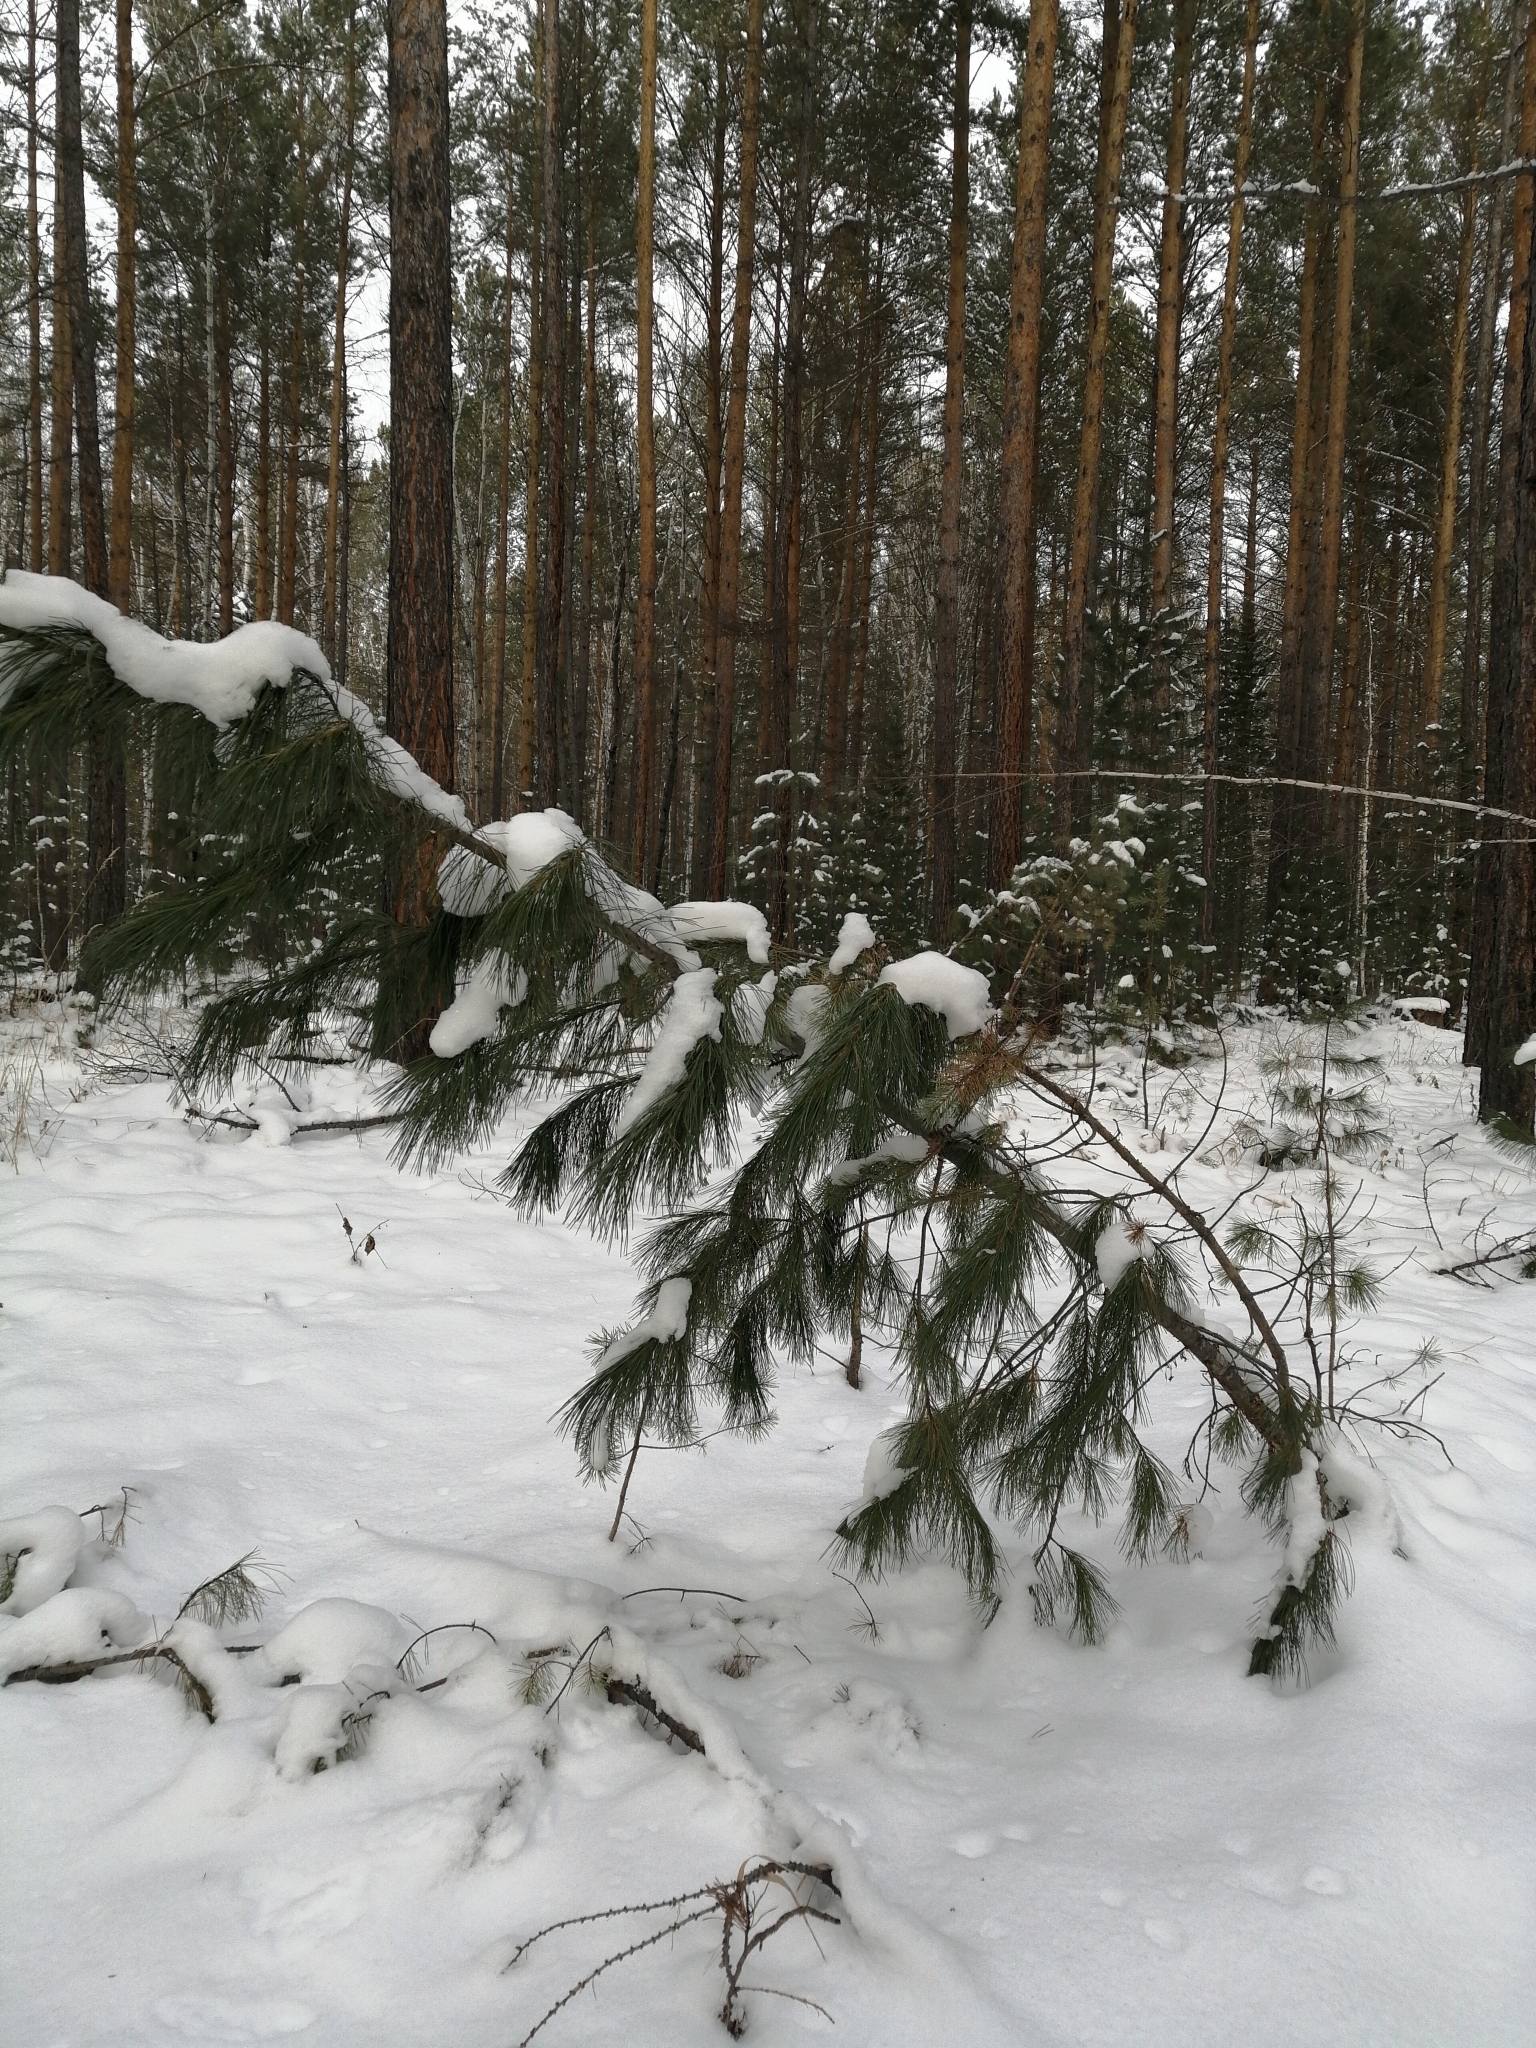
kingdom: Plantae
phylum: Tracheophyta
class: Pinopsida
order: Pinales
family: Pinaceae
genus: Pinus
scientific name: Pinus sibirica
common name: Siberian pine
